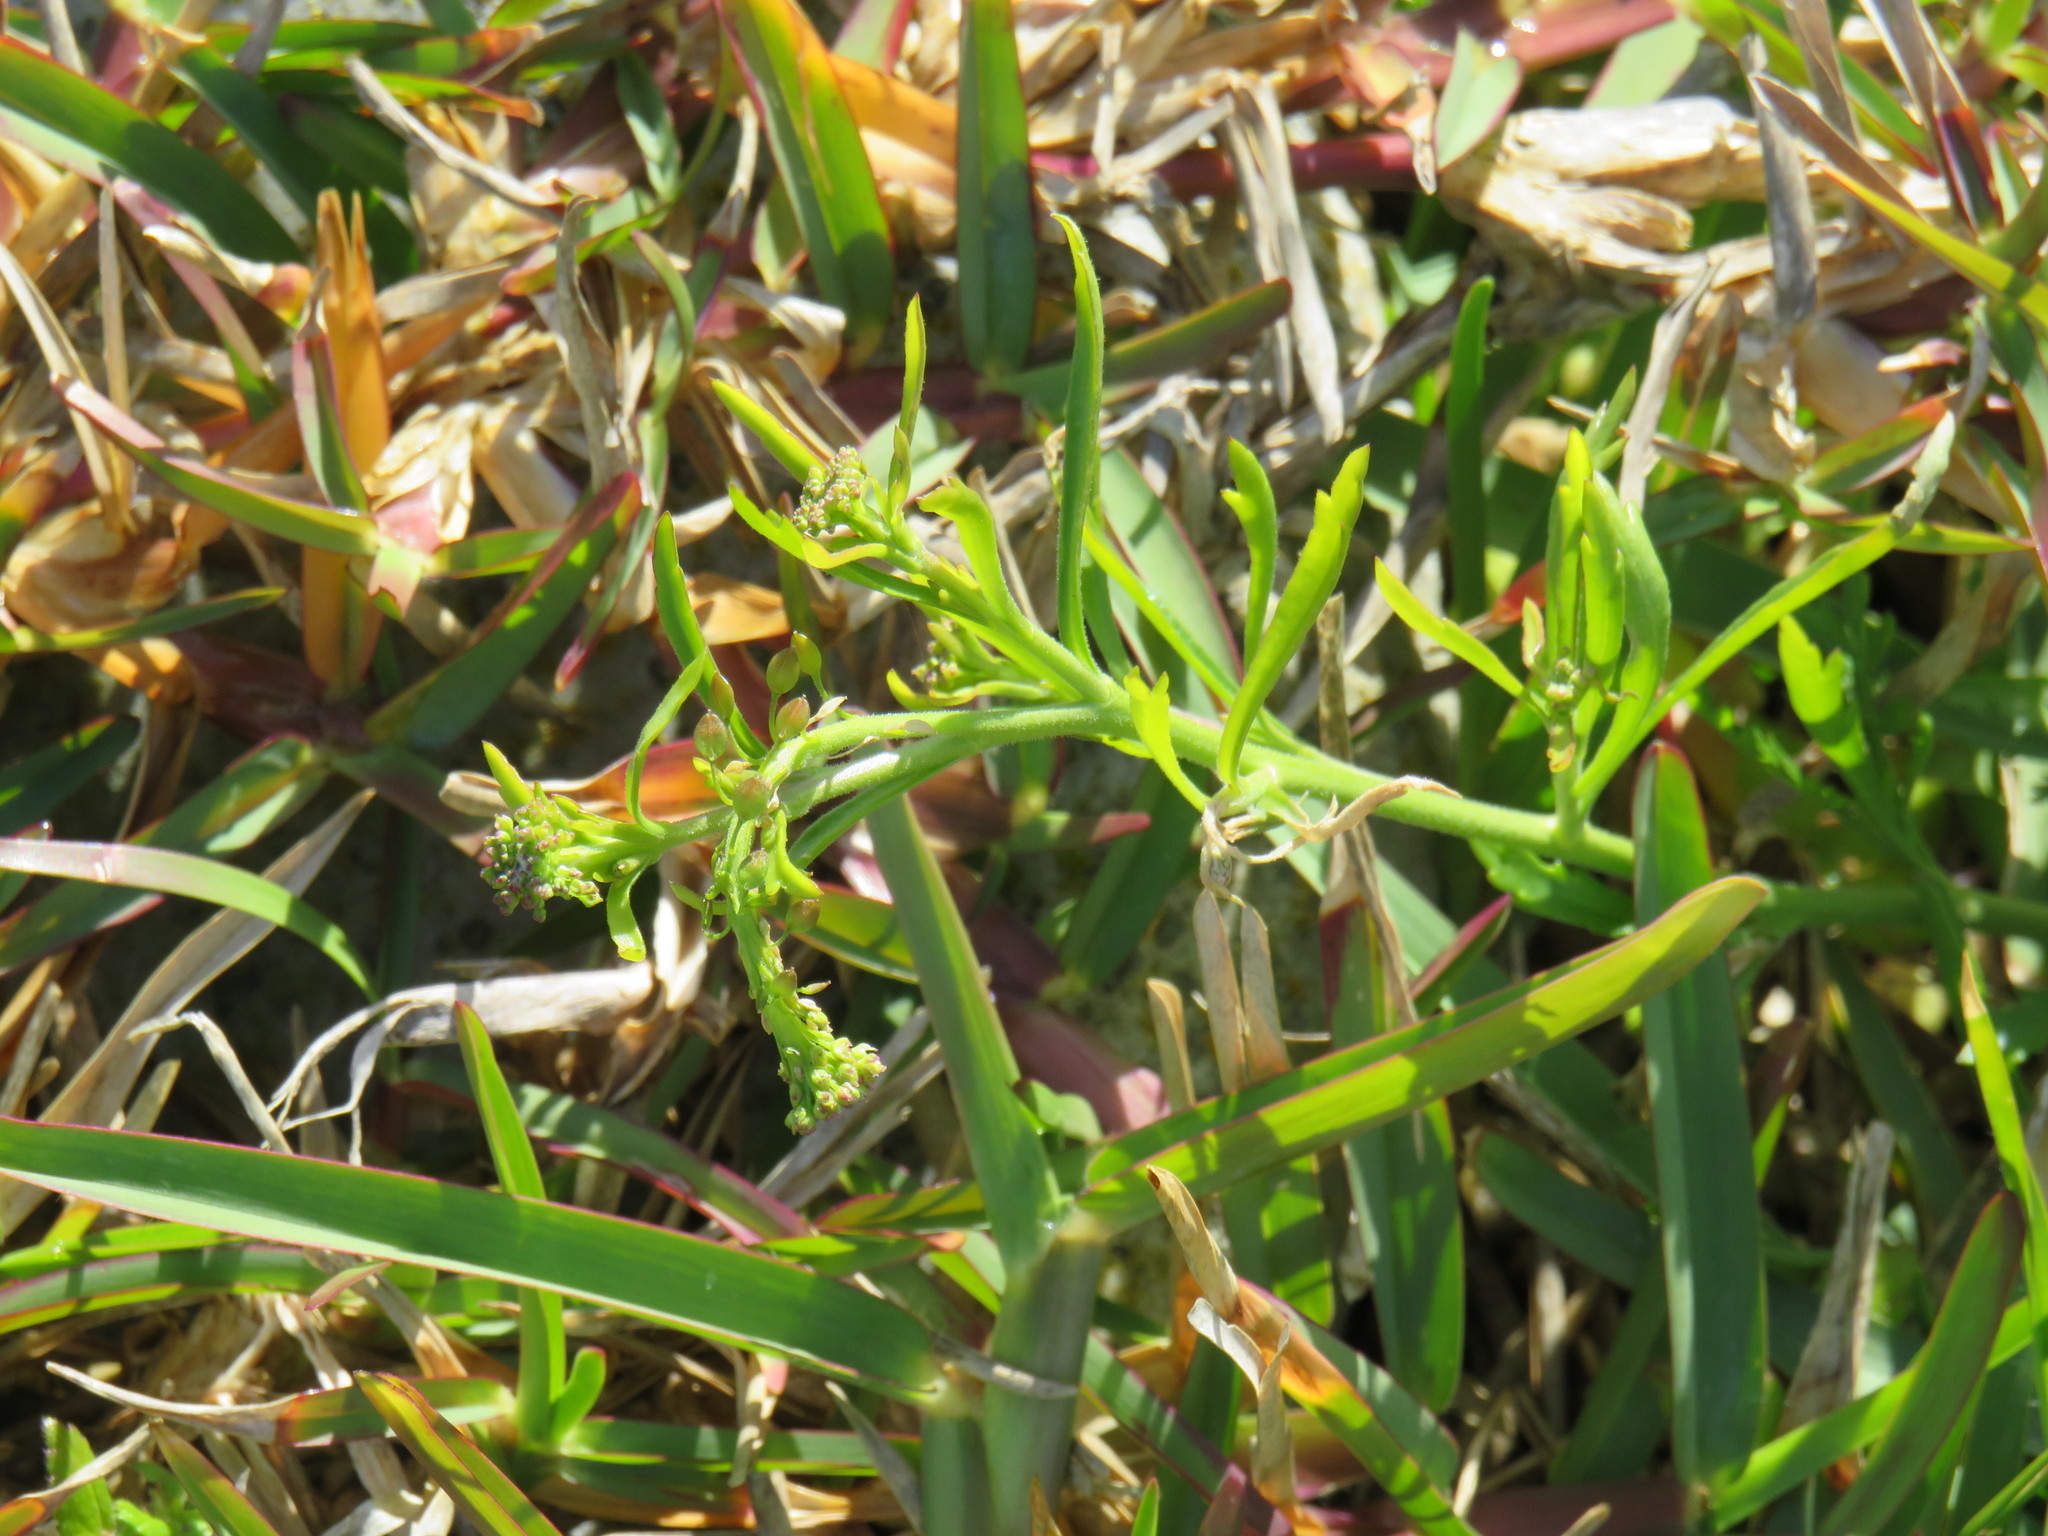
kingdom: Plantae
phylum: Tracheophyta
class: Magnoliopsida
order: Brassicales
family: Brassicaceae
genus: Lepidium
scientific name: Lepidium capense
